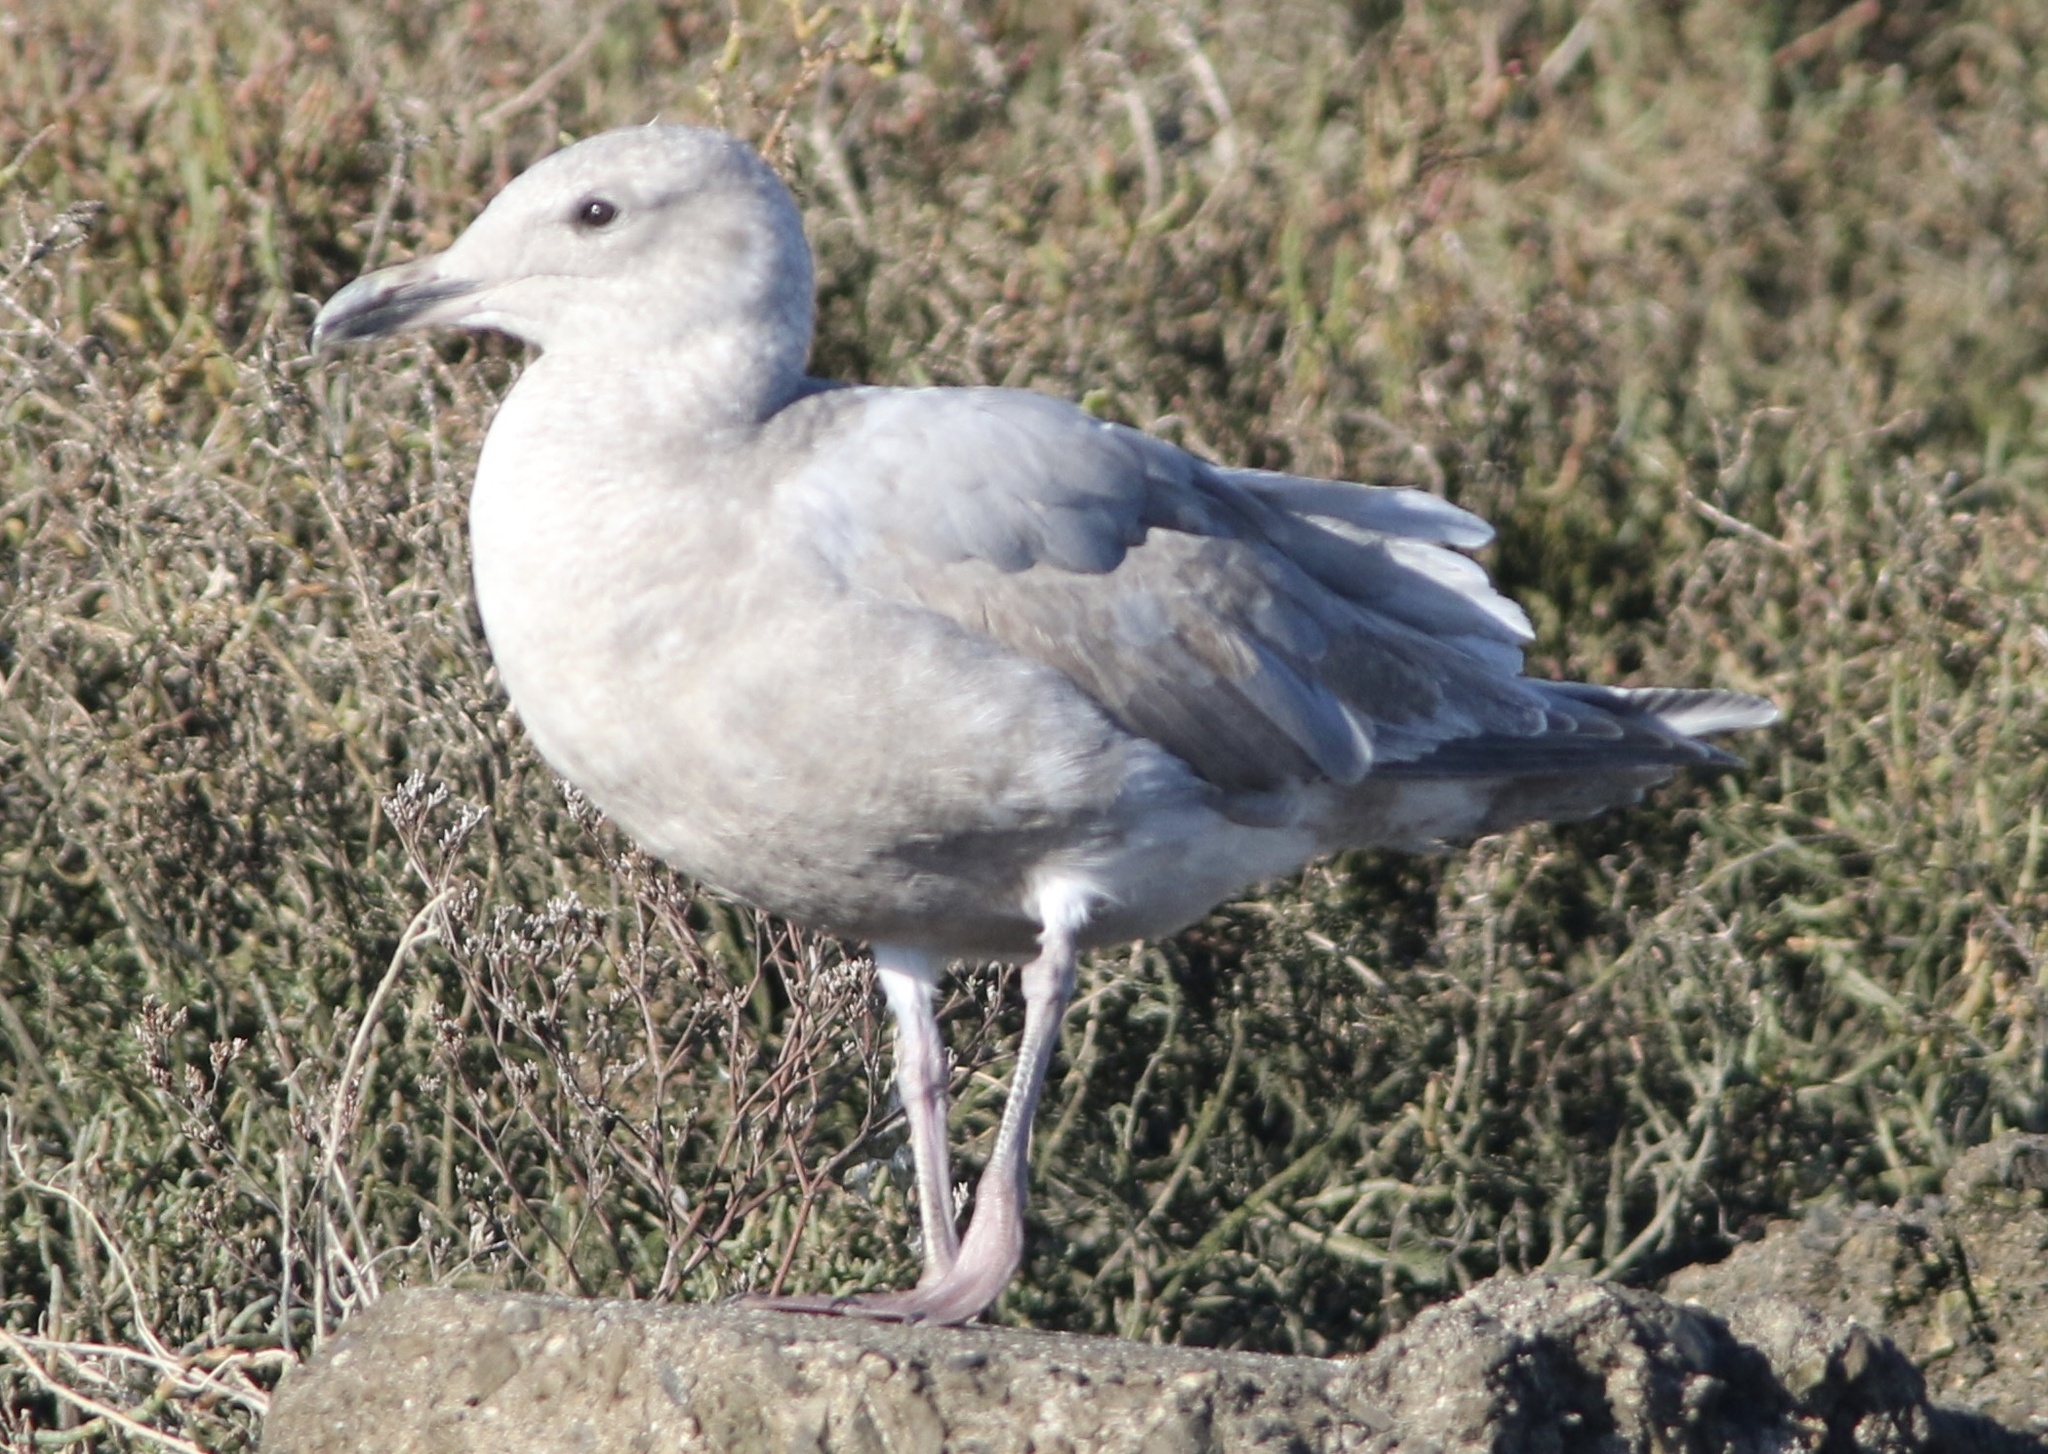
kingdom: Animalia
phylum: Chordata
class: Aves
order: Charadriiformes
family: Laridae
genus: Larus
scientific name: Larus glaucescens
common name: Glaucous-winged gull
